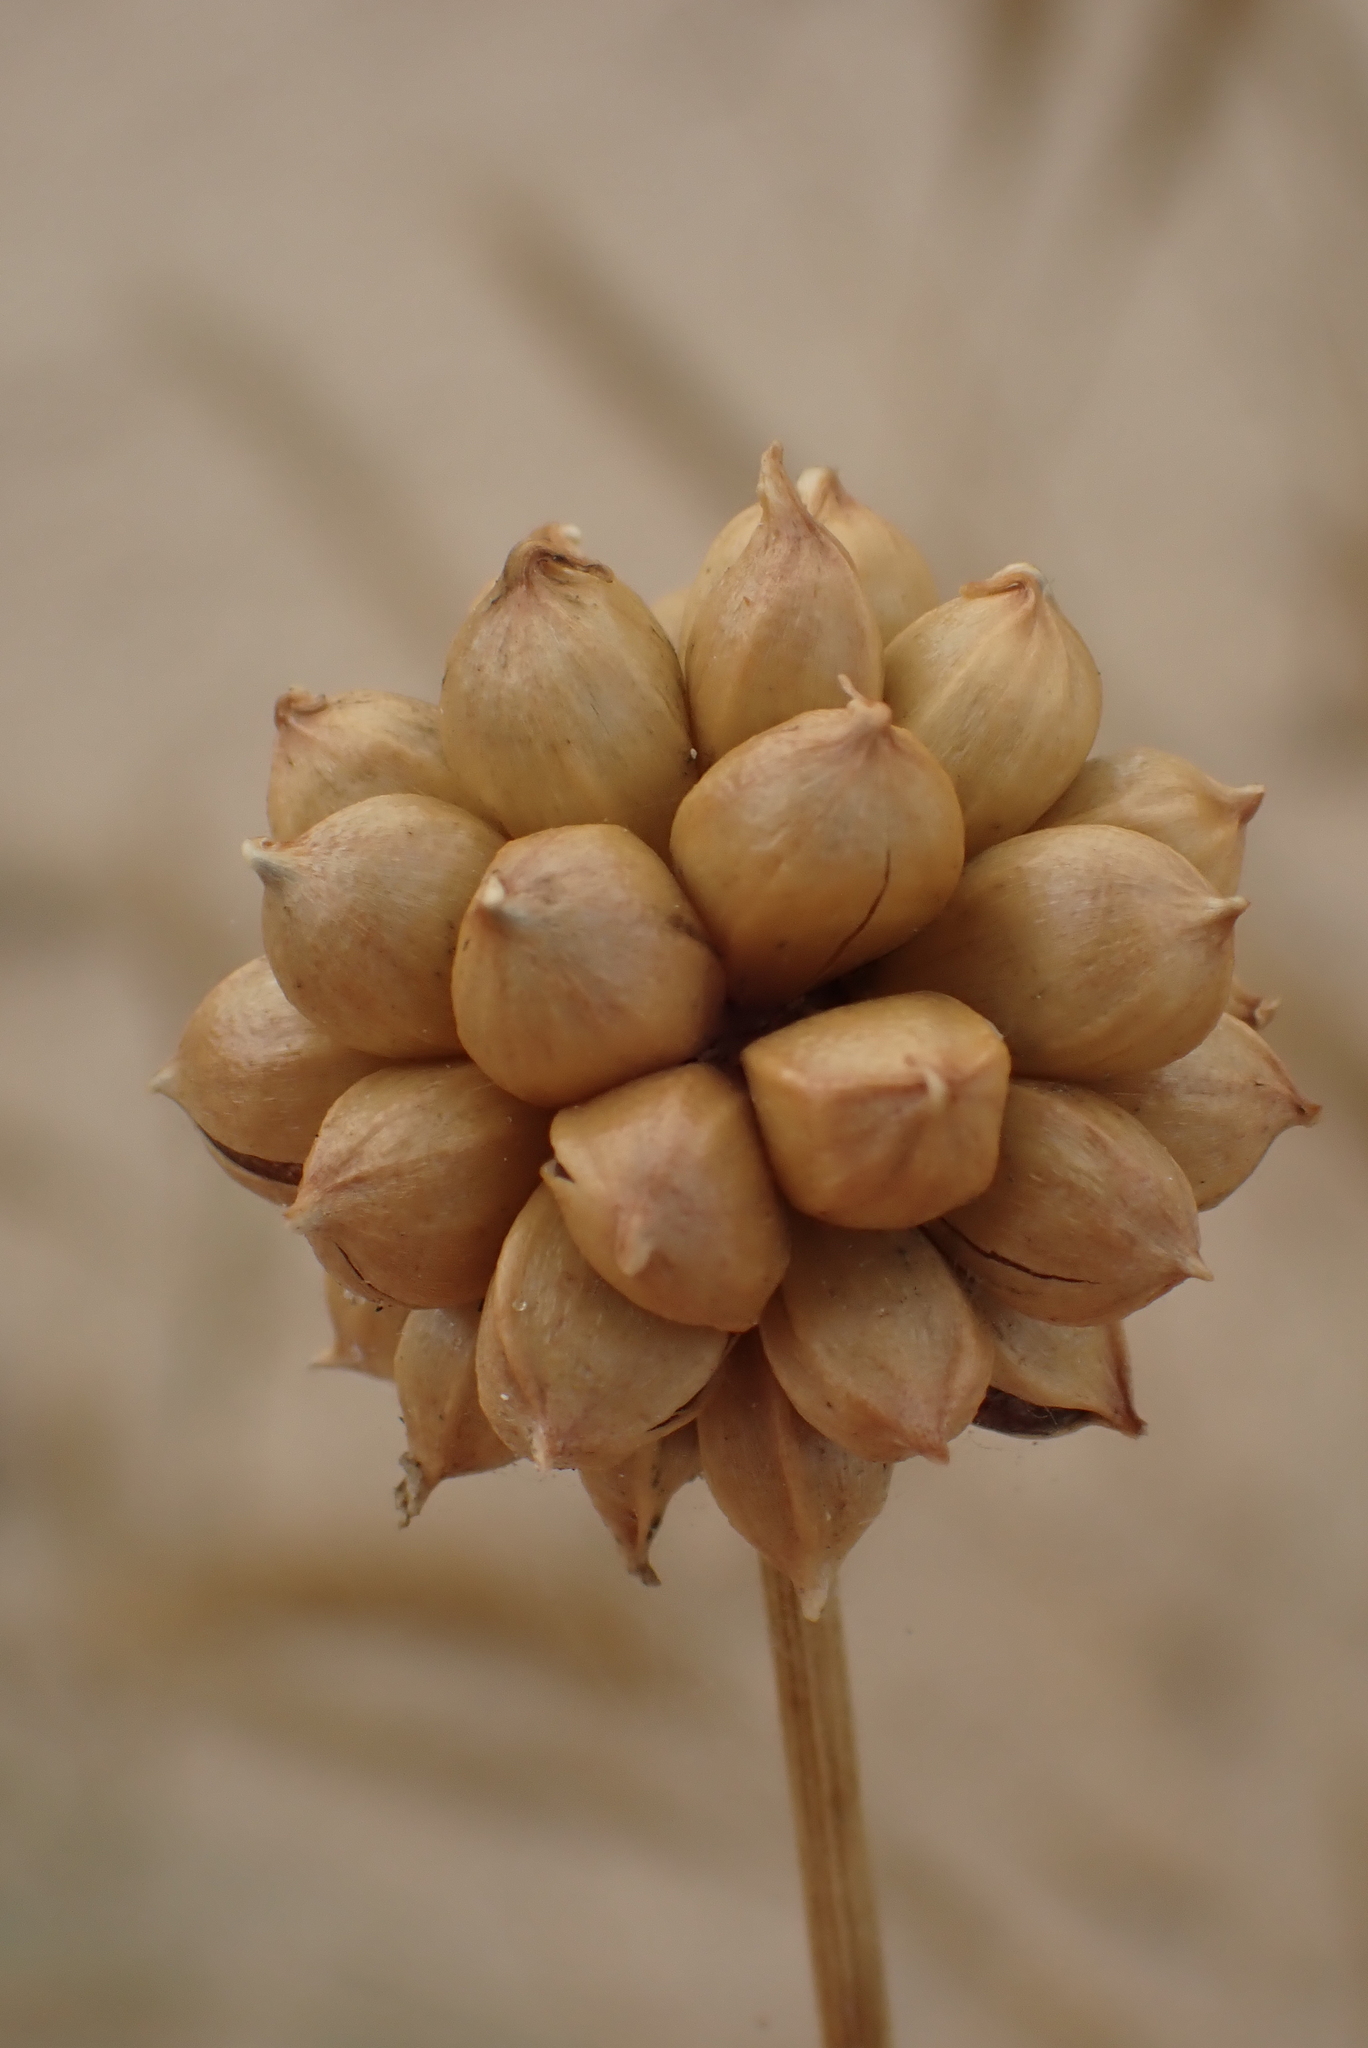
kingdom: Plantae
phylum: Tracheophyta
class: Liliopsida
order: Asparagales
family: Amaryllidaceae
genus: Allium
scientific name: Allium vineale
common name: Crow garlic
